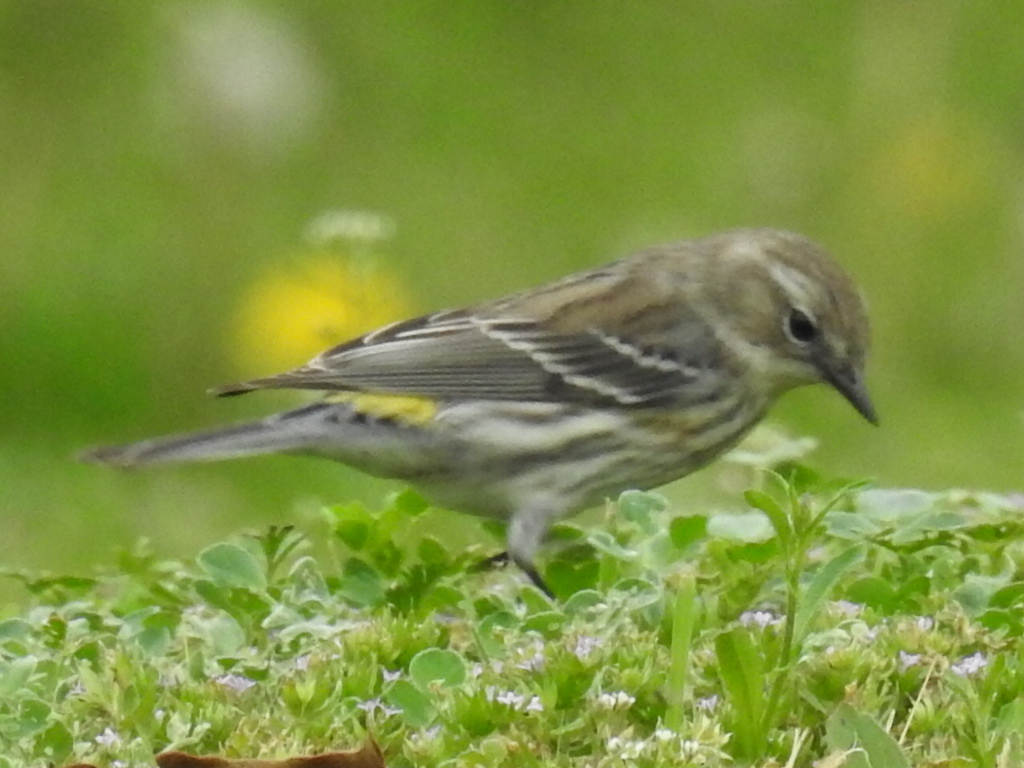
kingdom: Animalia
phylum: Chordata
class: Aves
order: Passeriformes
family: Parulidae
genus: Setophaga
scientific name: Setophaga coronata
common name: Myrtle warbler
